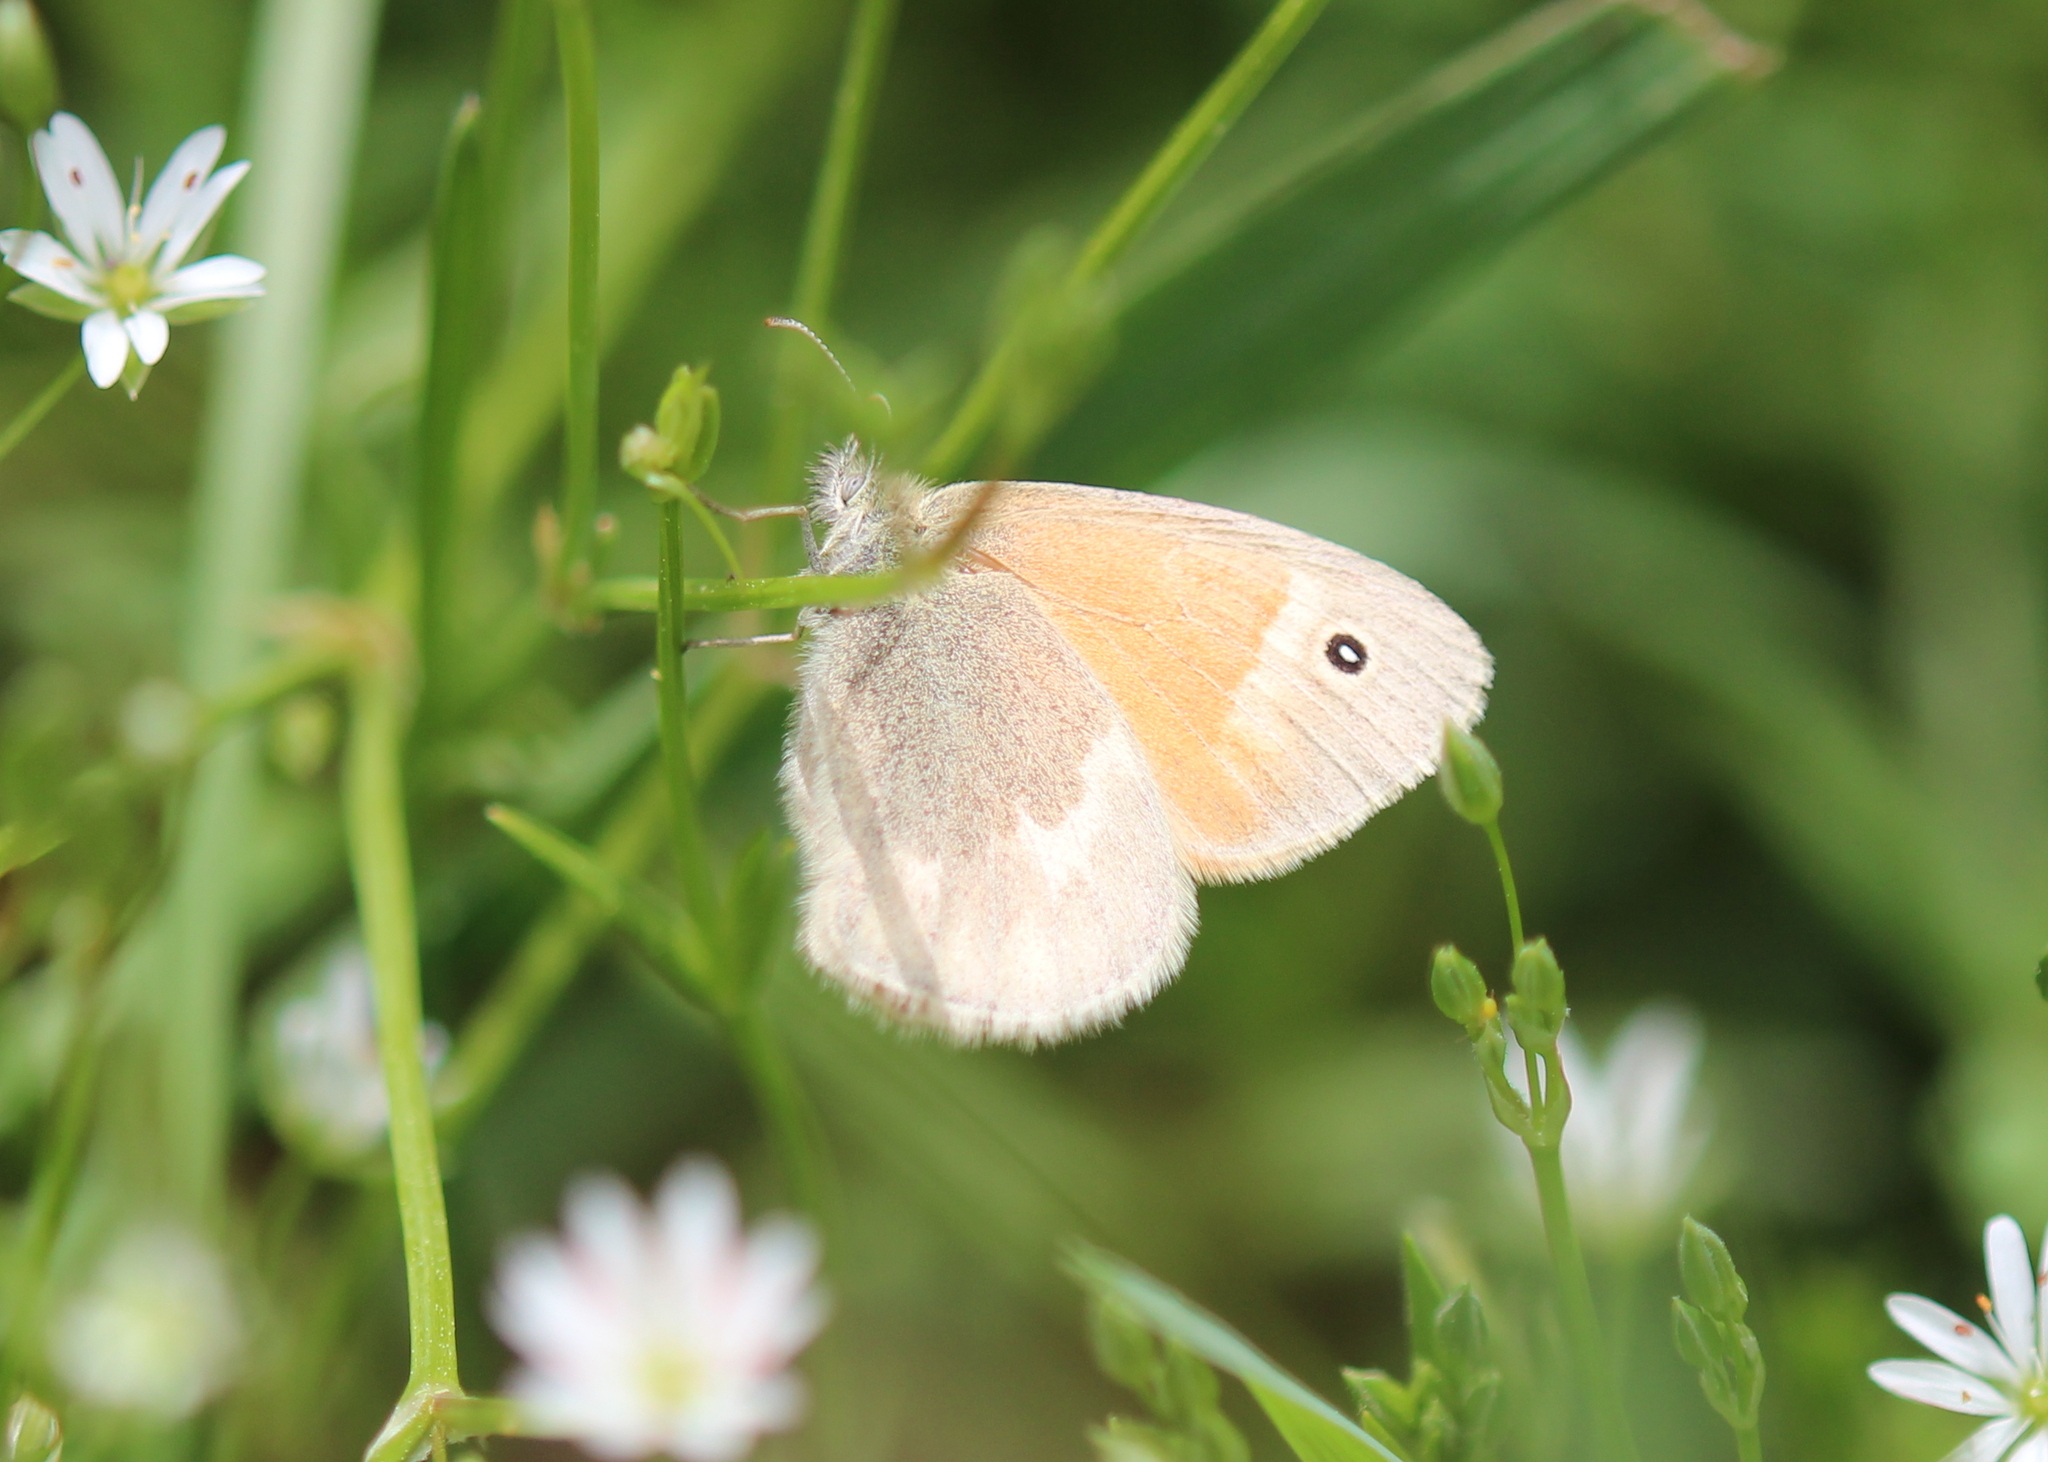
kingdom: Animalia
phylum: Arthropoda
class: Insecta
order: Lepidoptera
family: Nymphalidae
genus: Coenonympha
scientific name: Coenonympha california
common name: Common ringlet
